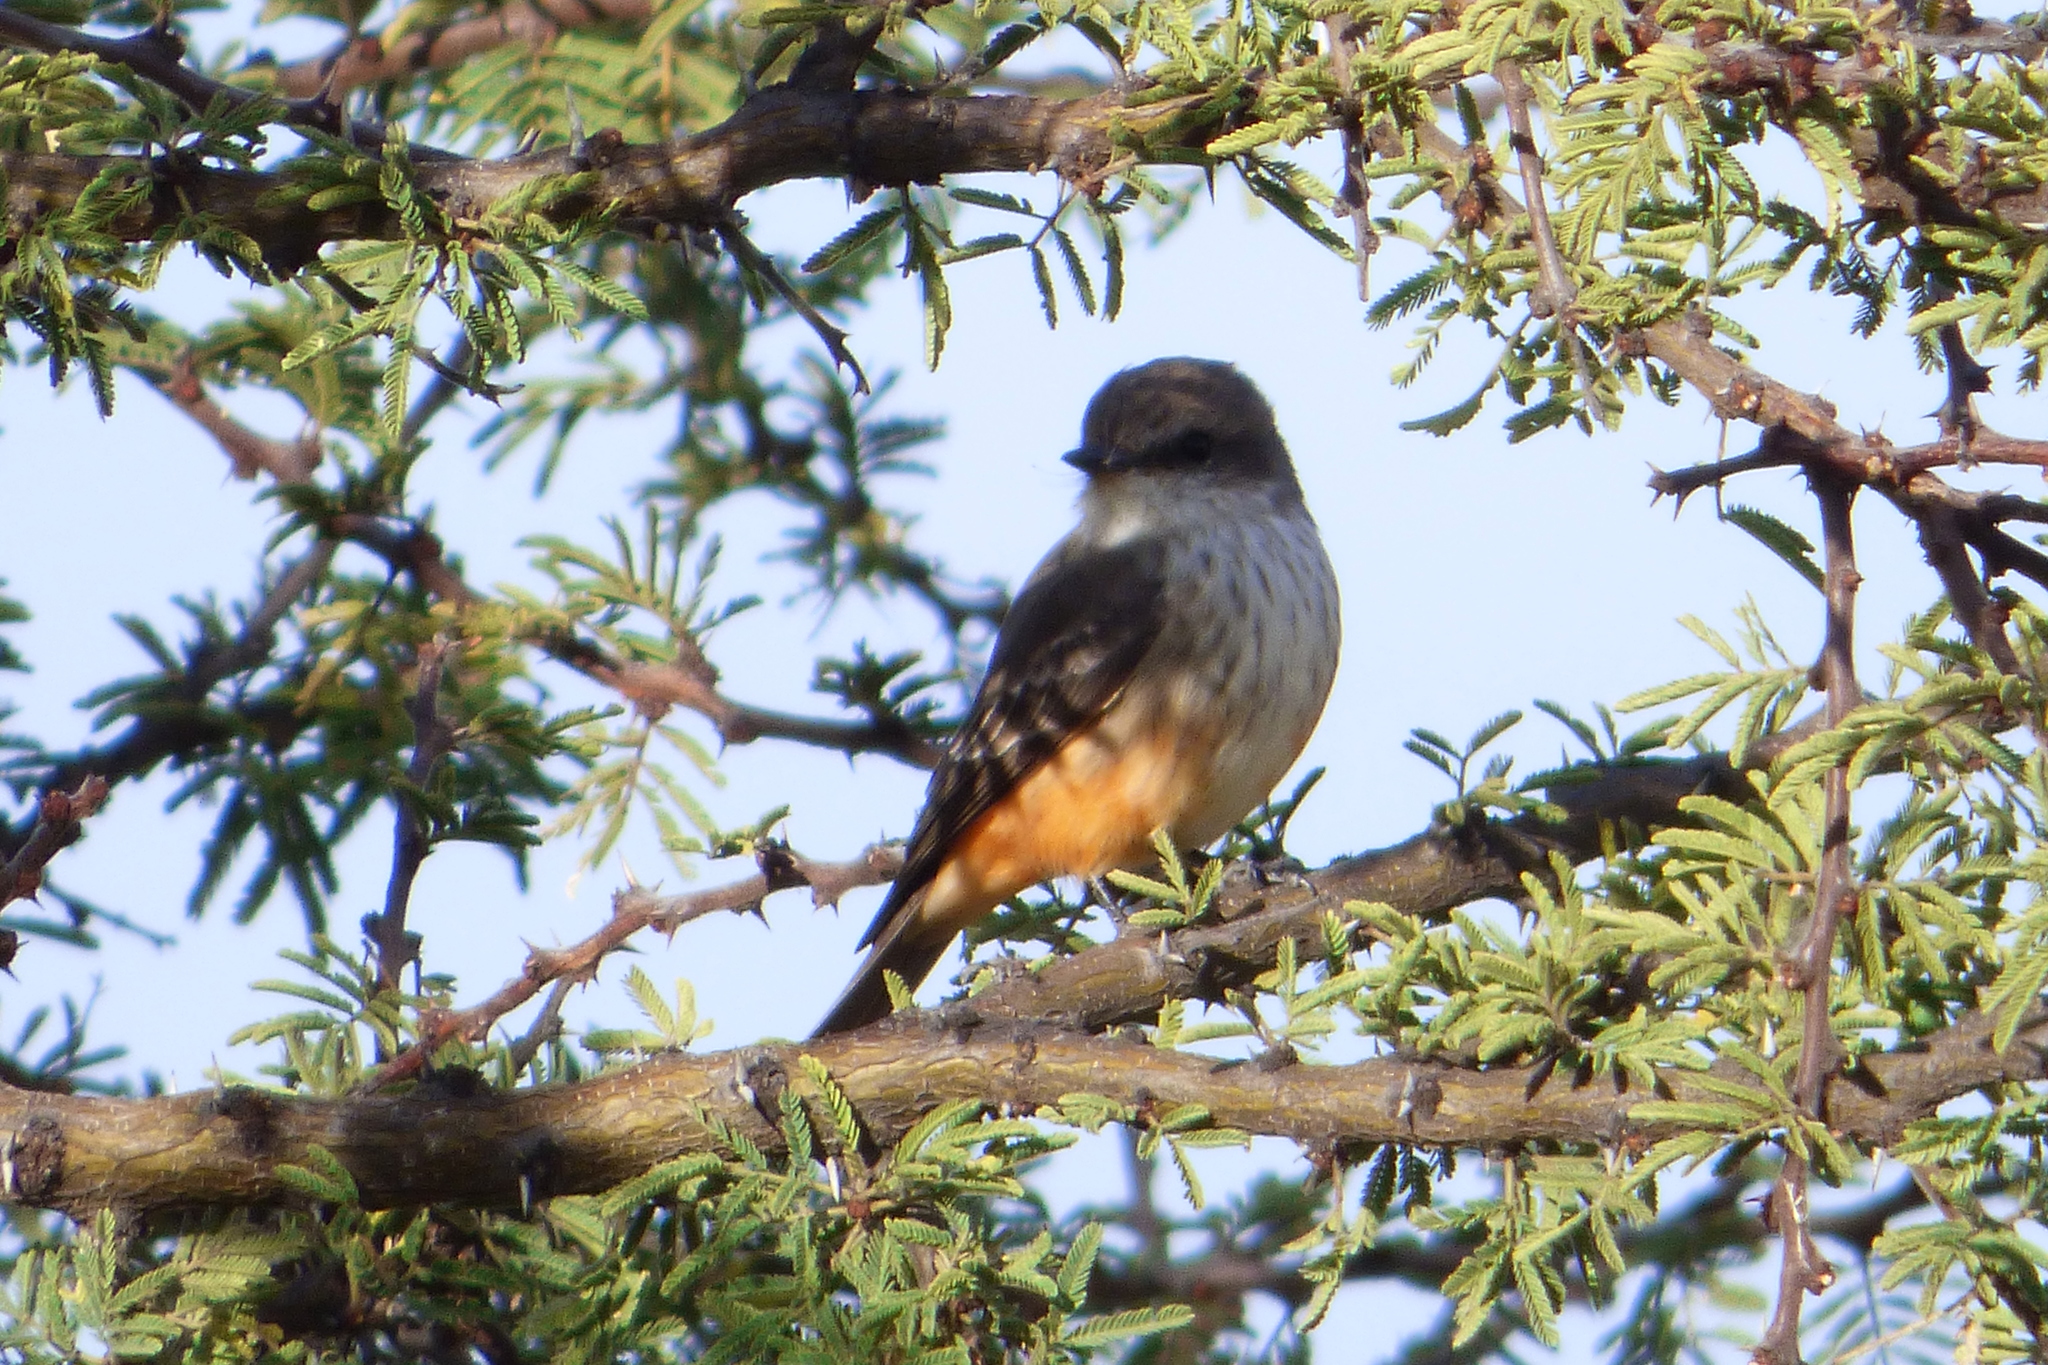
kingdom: Animalia
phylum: Chordata
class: Aves
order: Passeriformes
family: Tyrannidae
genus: Pyrocephalus
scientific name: Pyrocephalus rubinus
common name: Vermilion flycatcher
